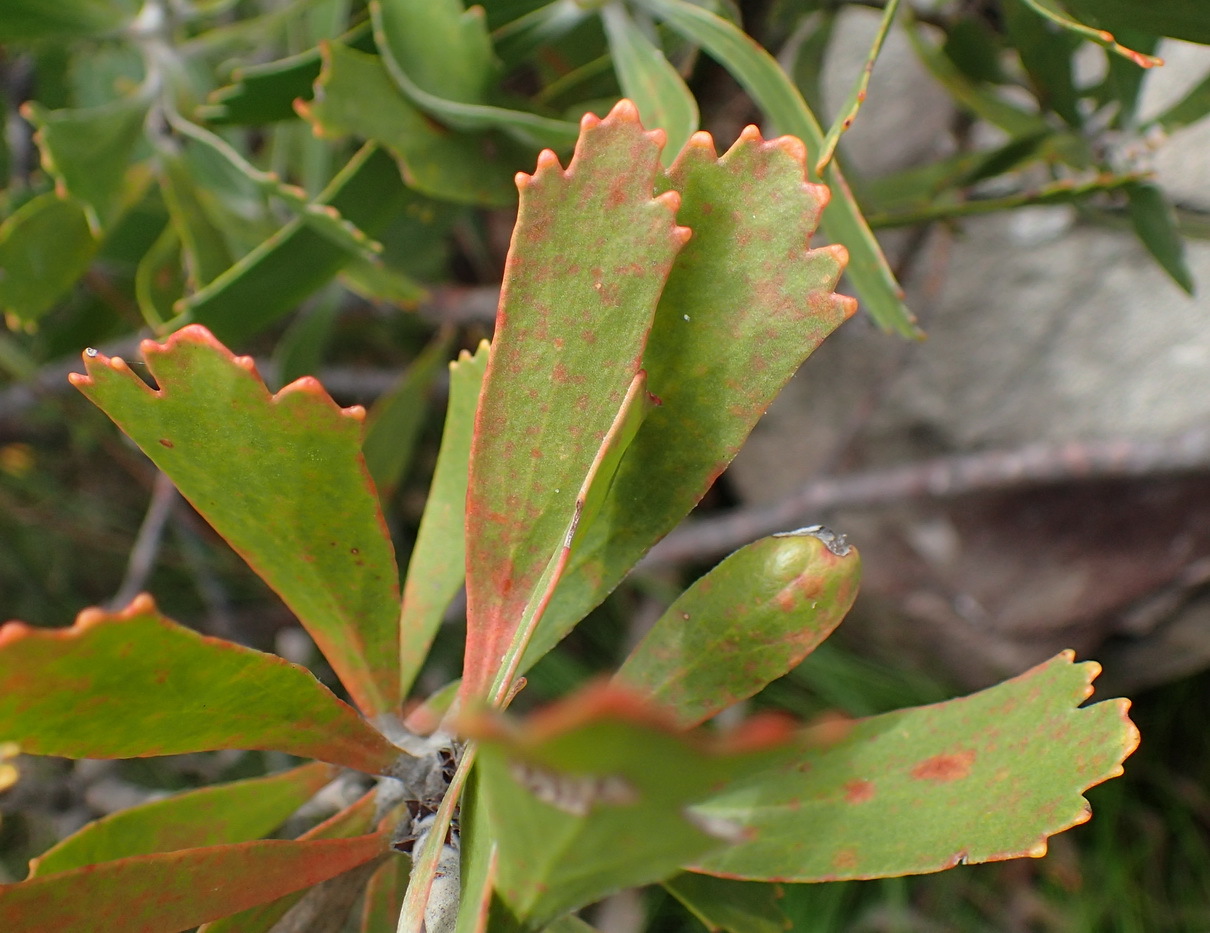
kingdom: Plantae
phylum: Tracheophyta
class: Magnoliopsida
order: Proteales
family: Proteaceae
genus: Leucospermum
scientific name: Leucospermum cuneiforme
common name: Common pincushion
